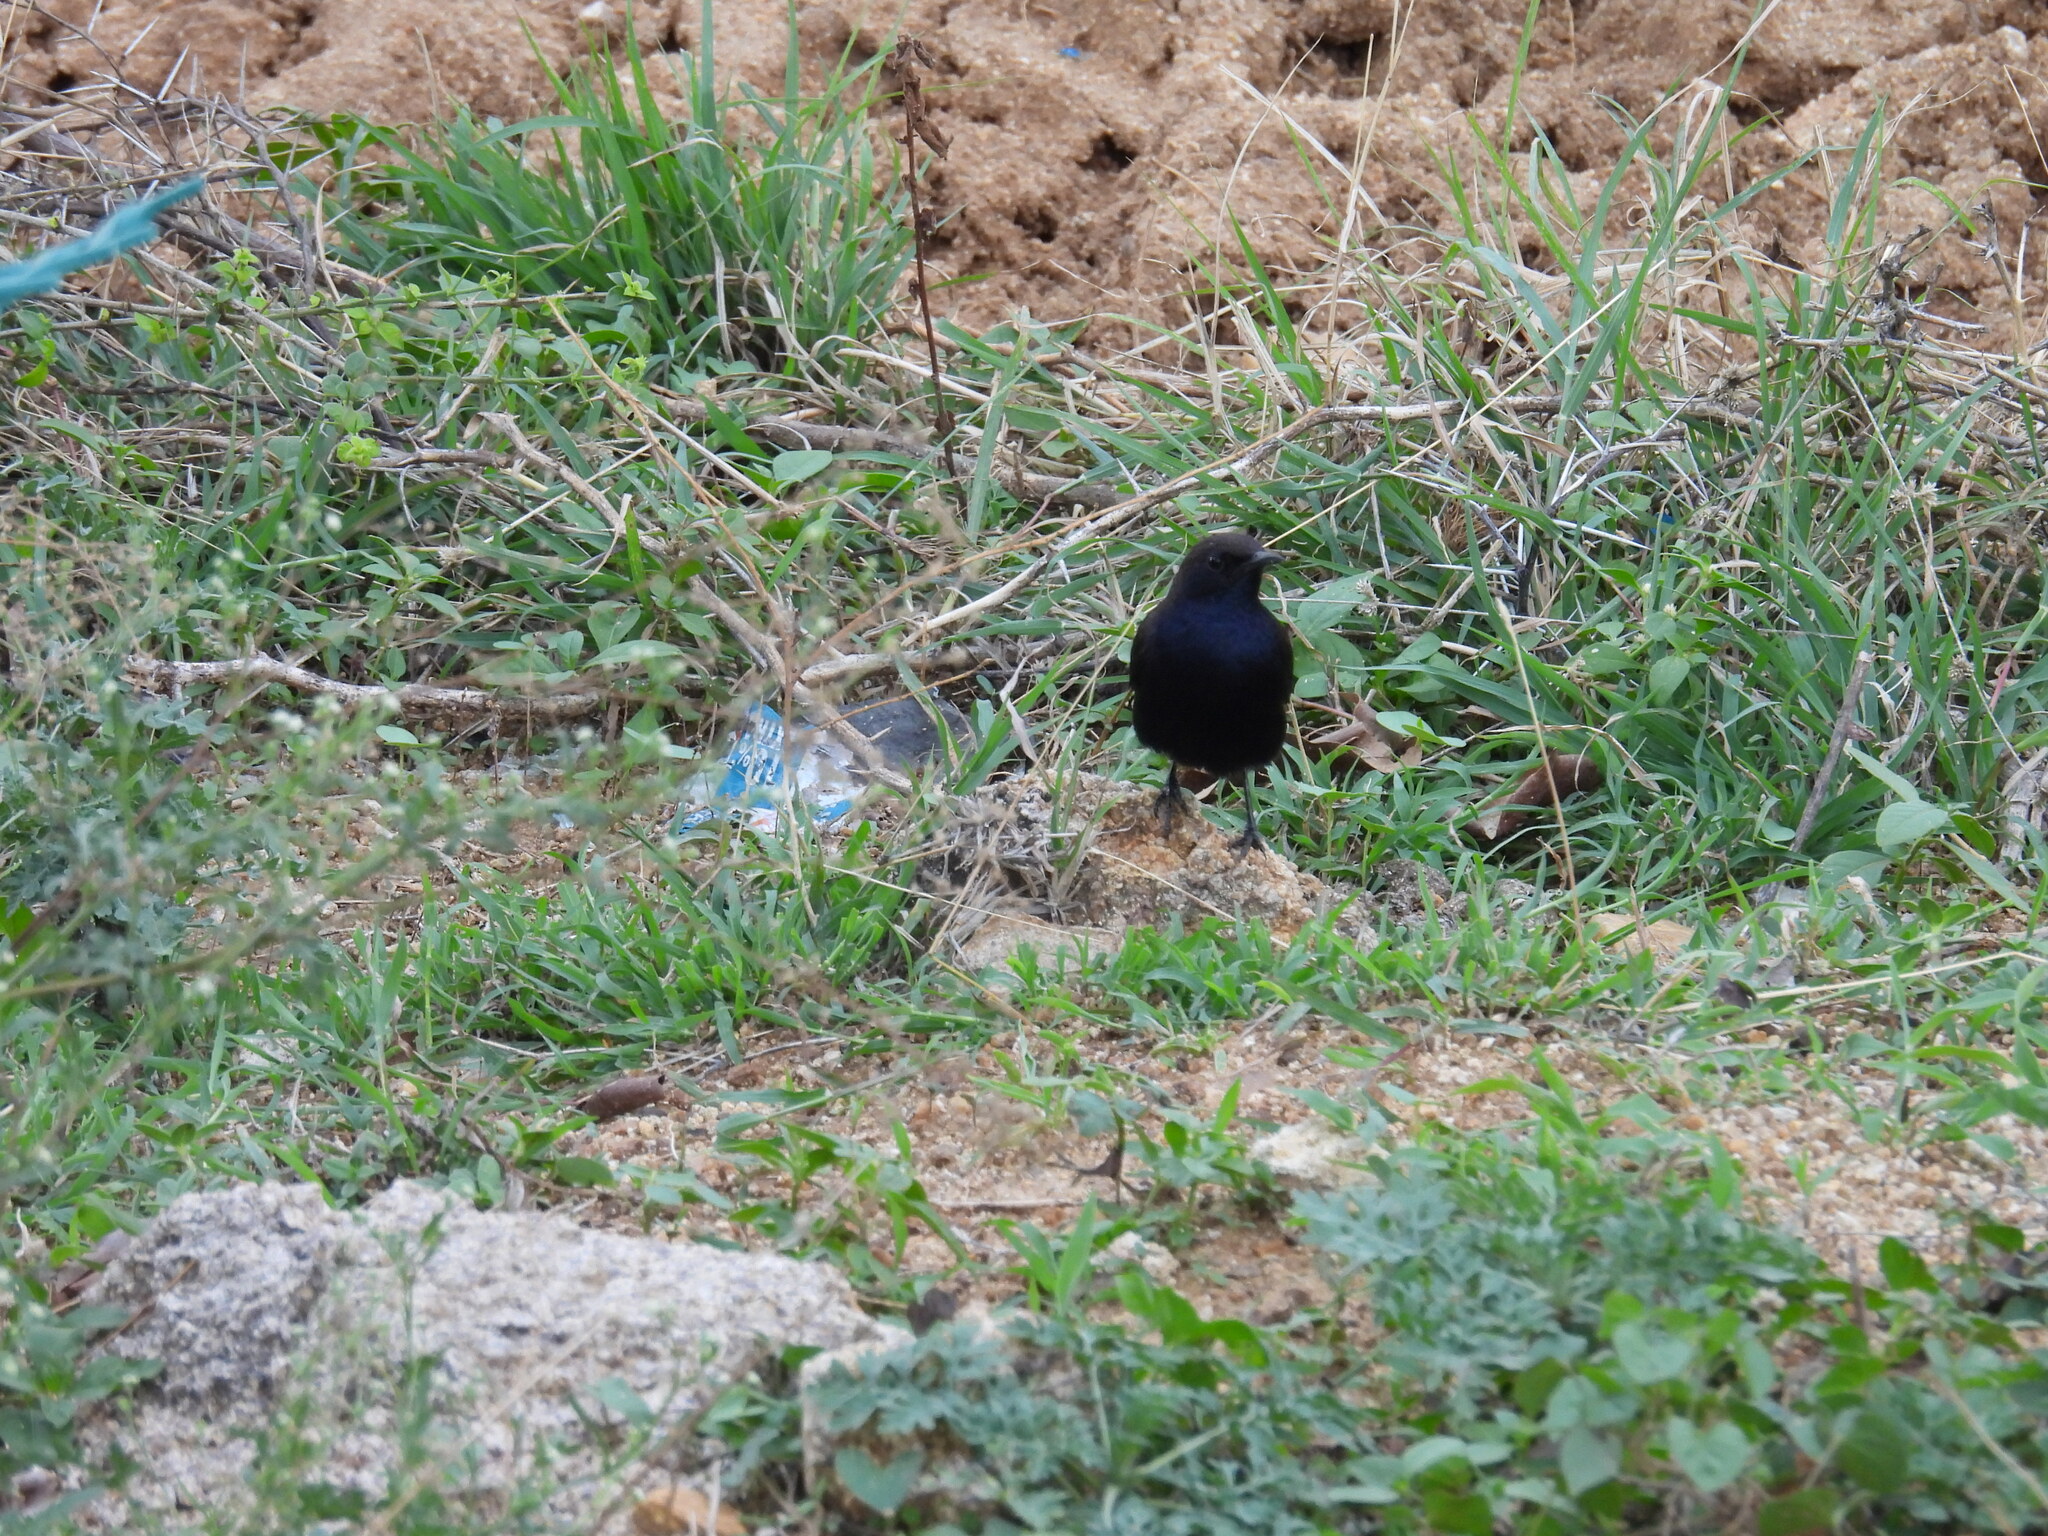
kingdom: Animalia
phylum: Chordata
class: Aves
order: Passeriformes
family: Muscicapidae
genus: Saxicoloides
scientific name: Saxicoloides fulicatus
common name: Indian robin
